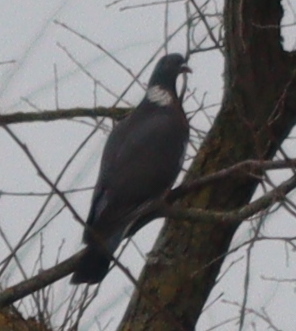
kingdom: Animalia
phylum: Chordata
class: Aves
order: Columbiformes
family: Columbidae
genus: Columba
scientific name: Columba palumbus
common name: Common wood pigeon
